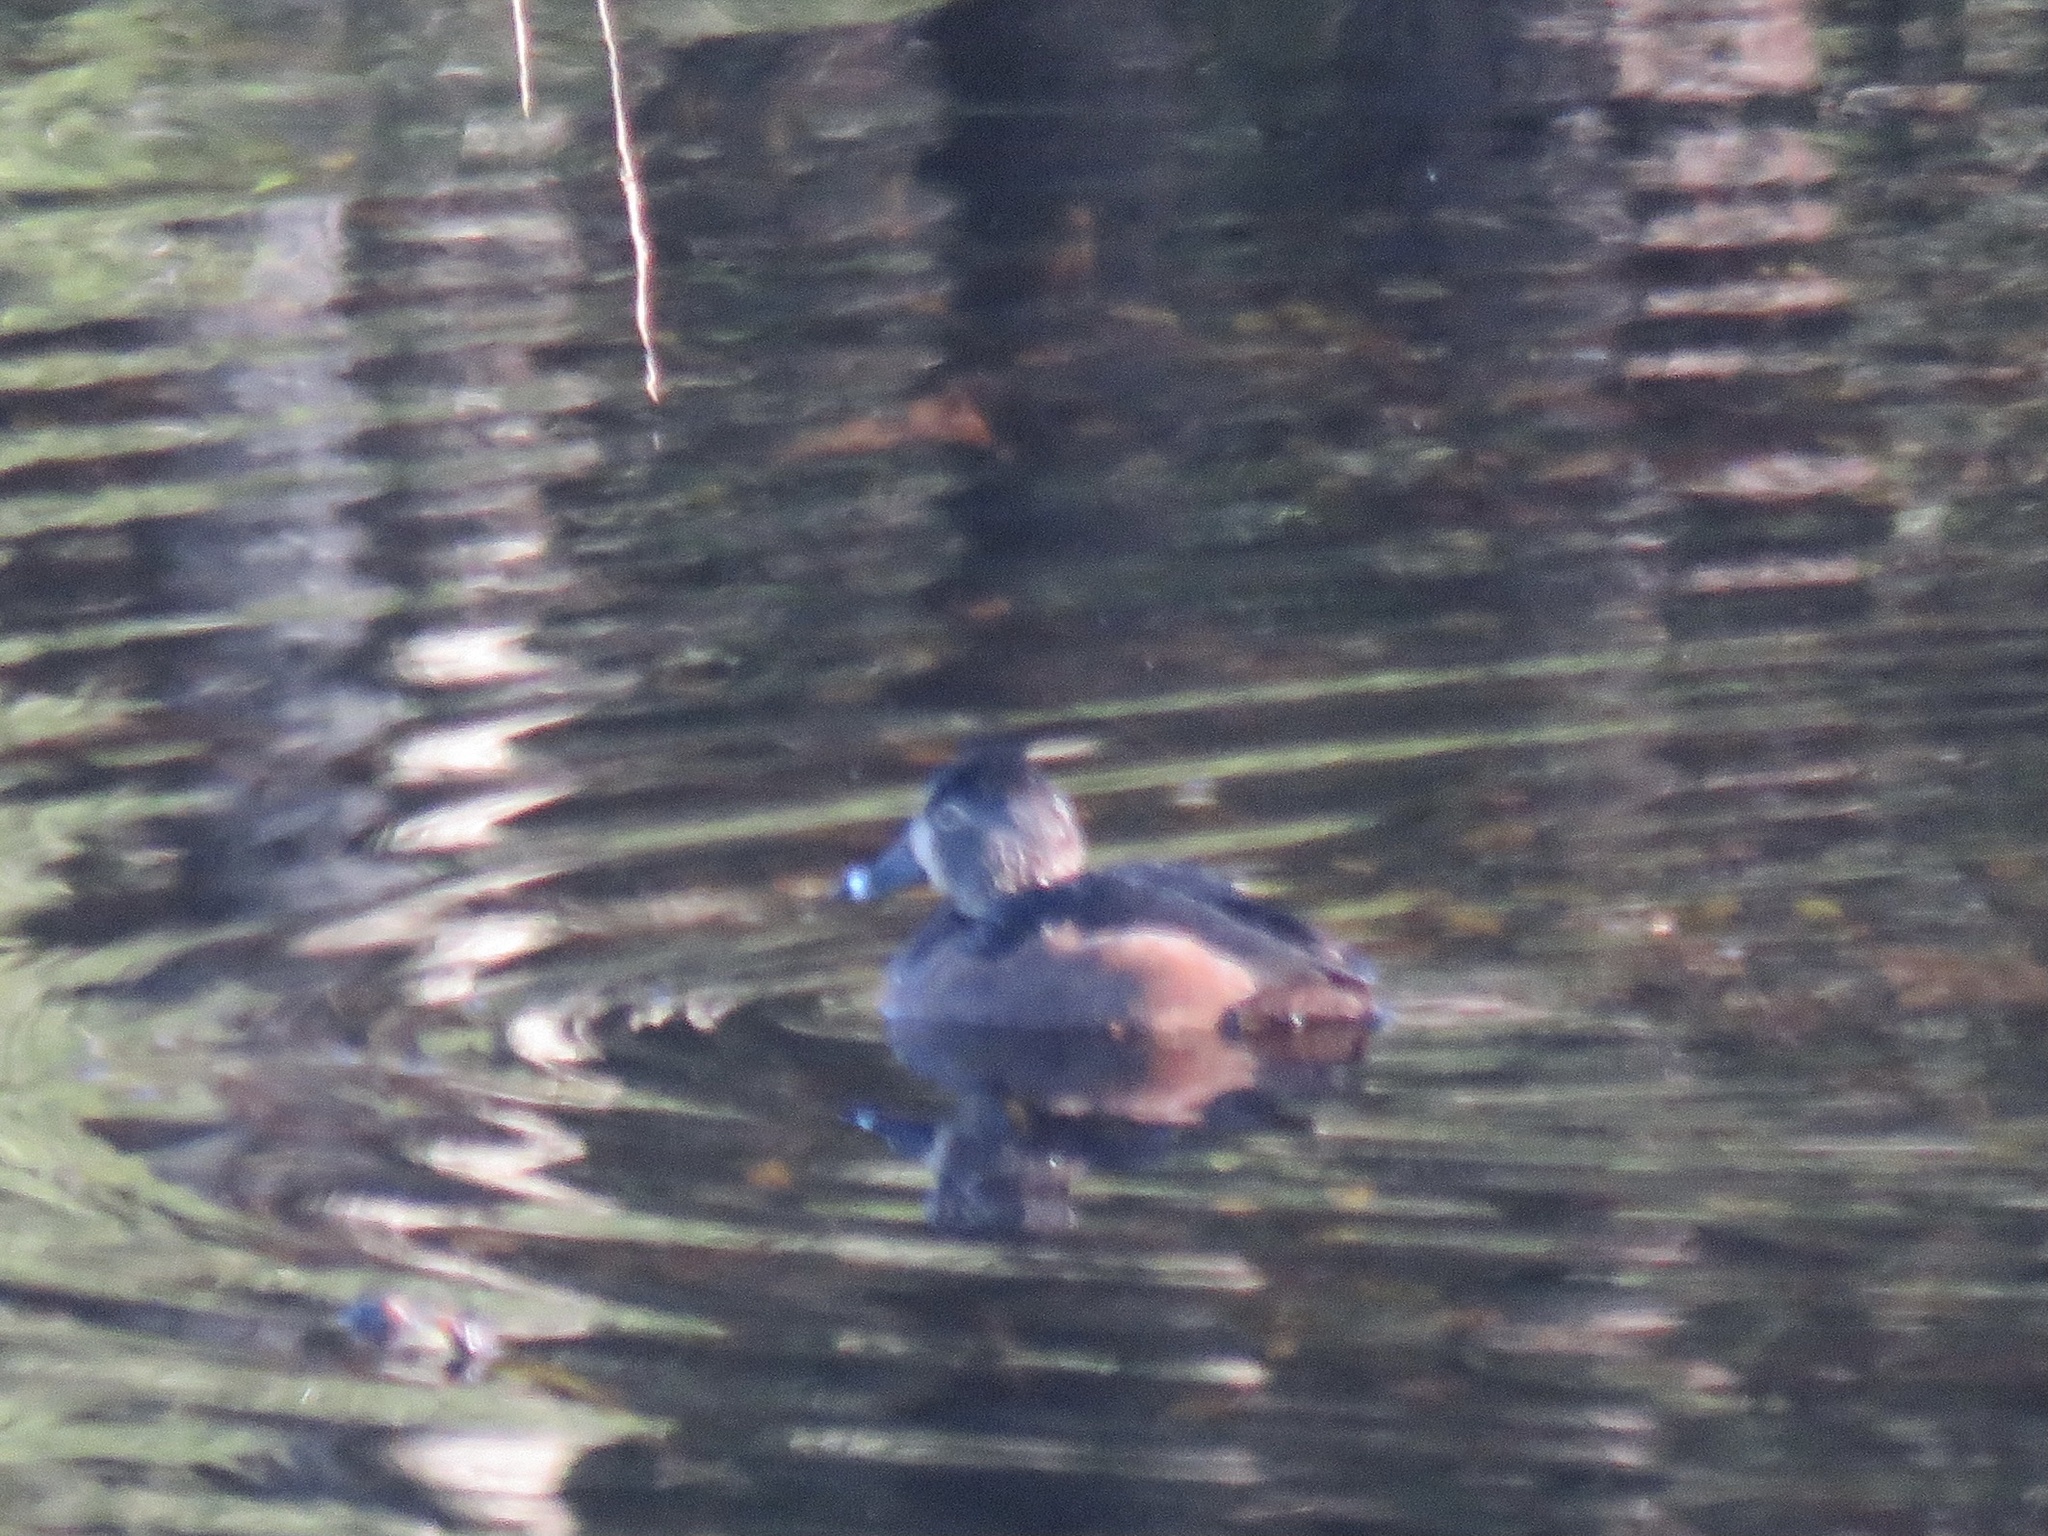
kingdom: Animalia
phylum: Chordata
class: Aves
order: Anseriformes
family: Anatidae
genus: Aythya
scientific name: Aythya collaris
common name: Ring-necked duck
